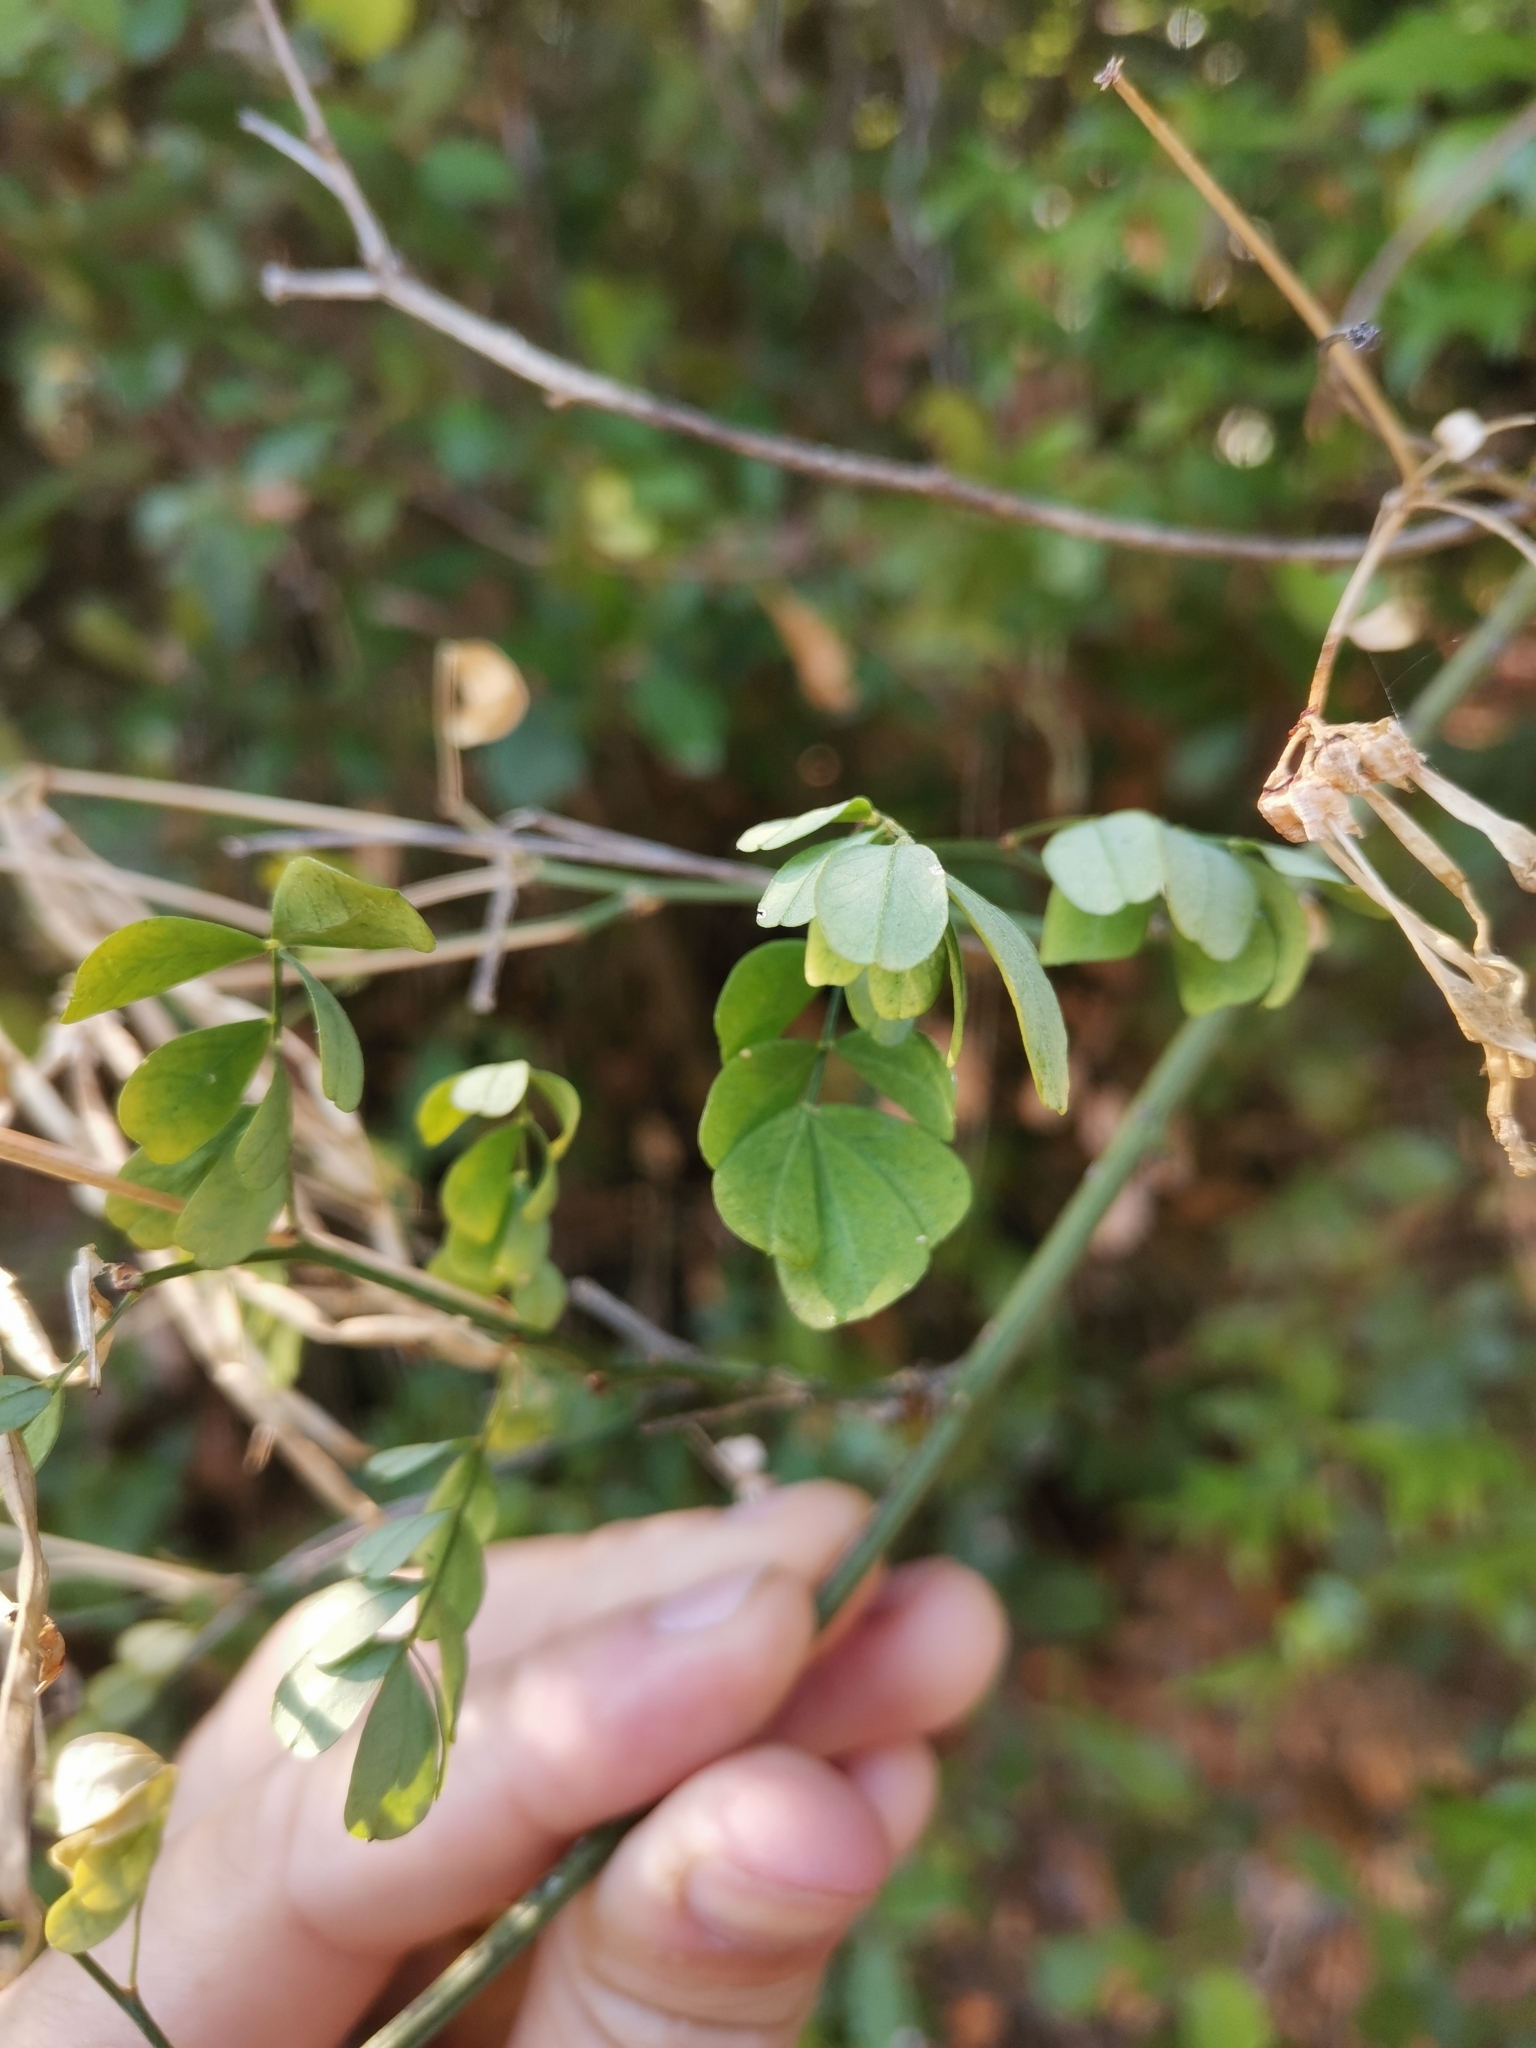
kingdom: Plantae
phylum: Tracheophyta
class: Magnoliopsida
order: Fabales
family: Fabaceae
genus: Hippocrepis
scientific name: Hippocrepis emerus
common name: Scorpion senna
